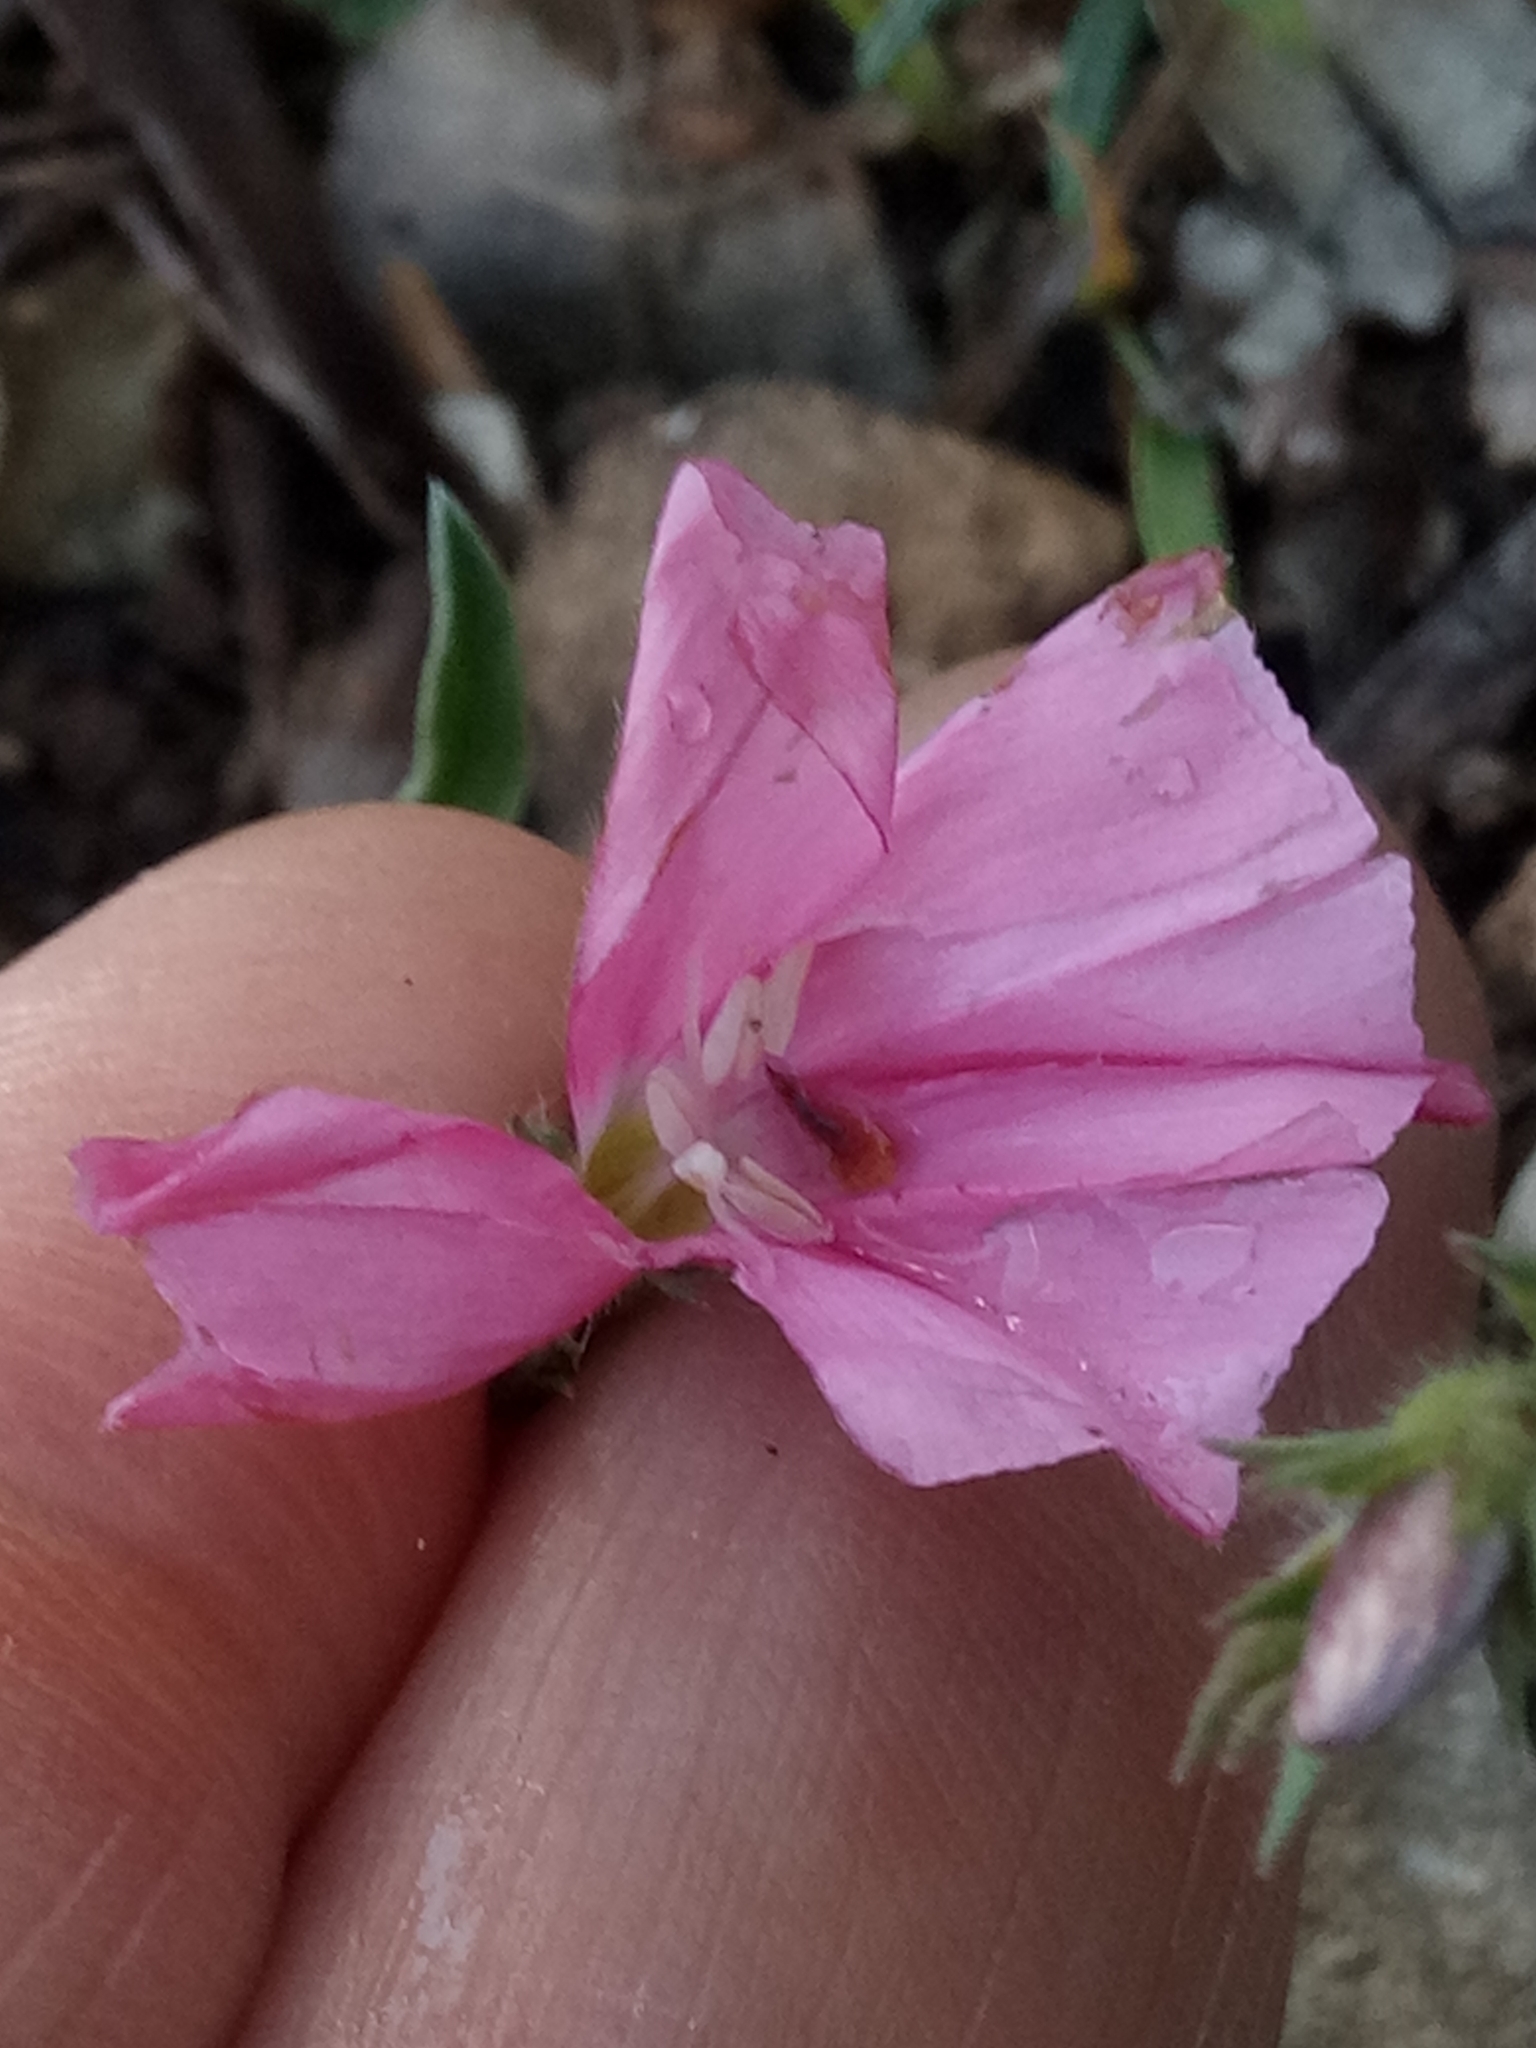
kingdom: Plantae
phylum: Tracheophyta
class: Magnoliopsida
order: Solanales
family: Convolvulaceae
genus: Convolvulus
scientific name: Convolvulus cantabrica
